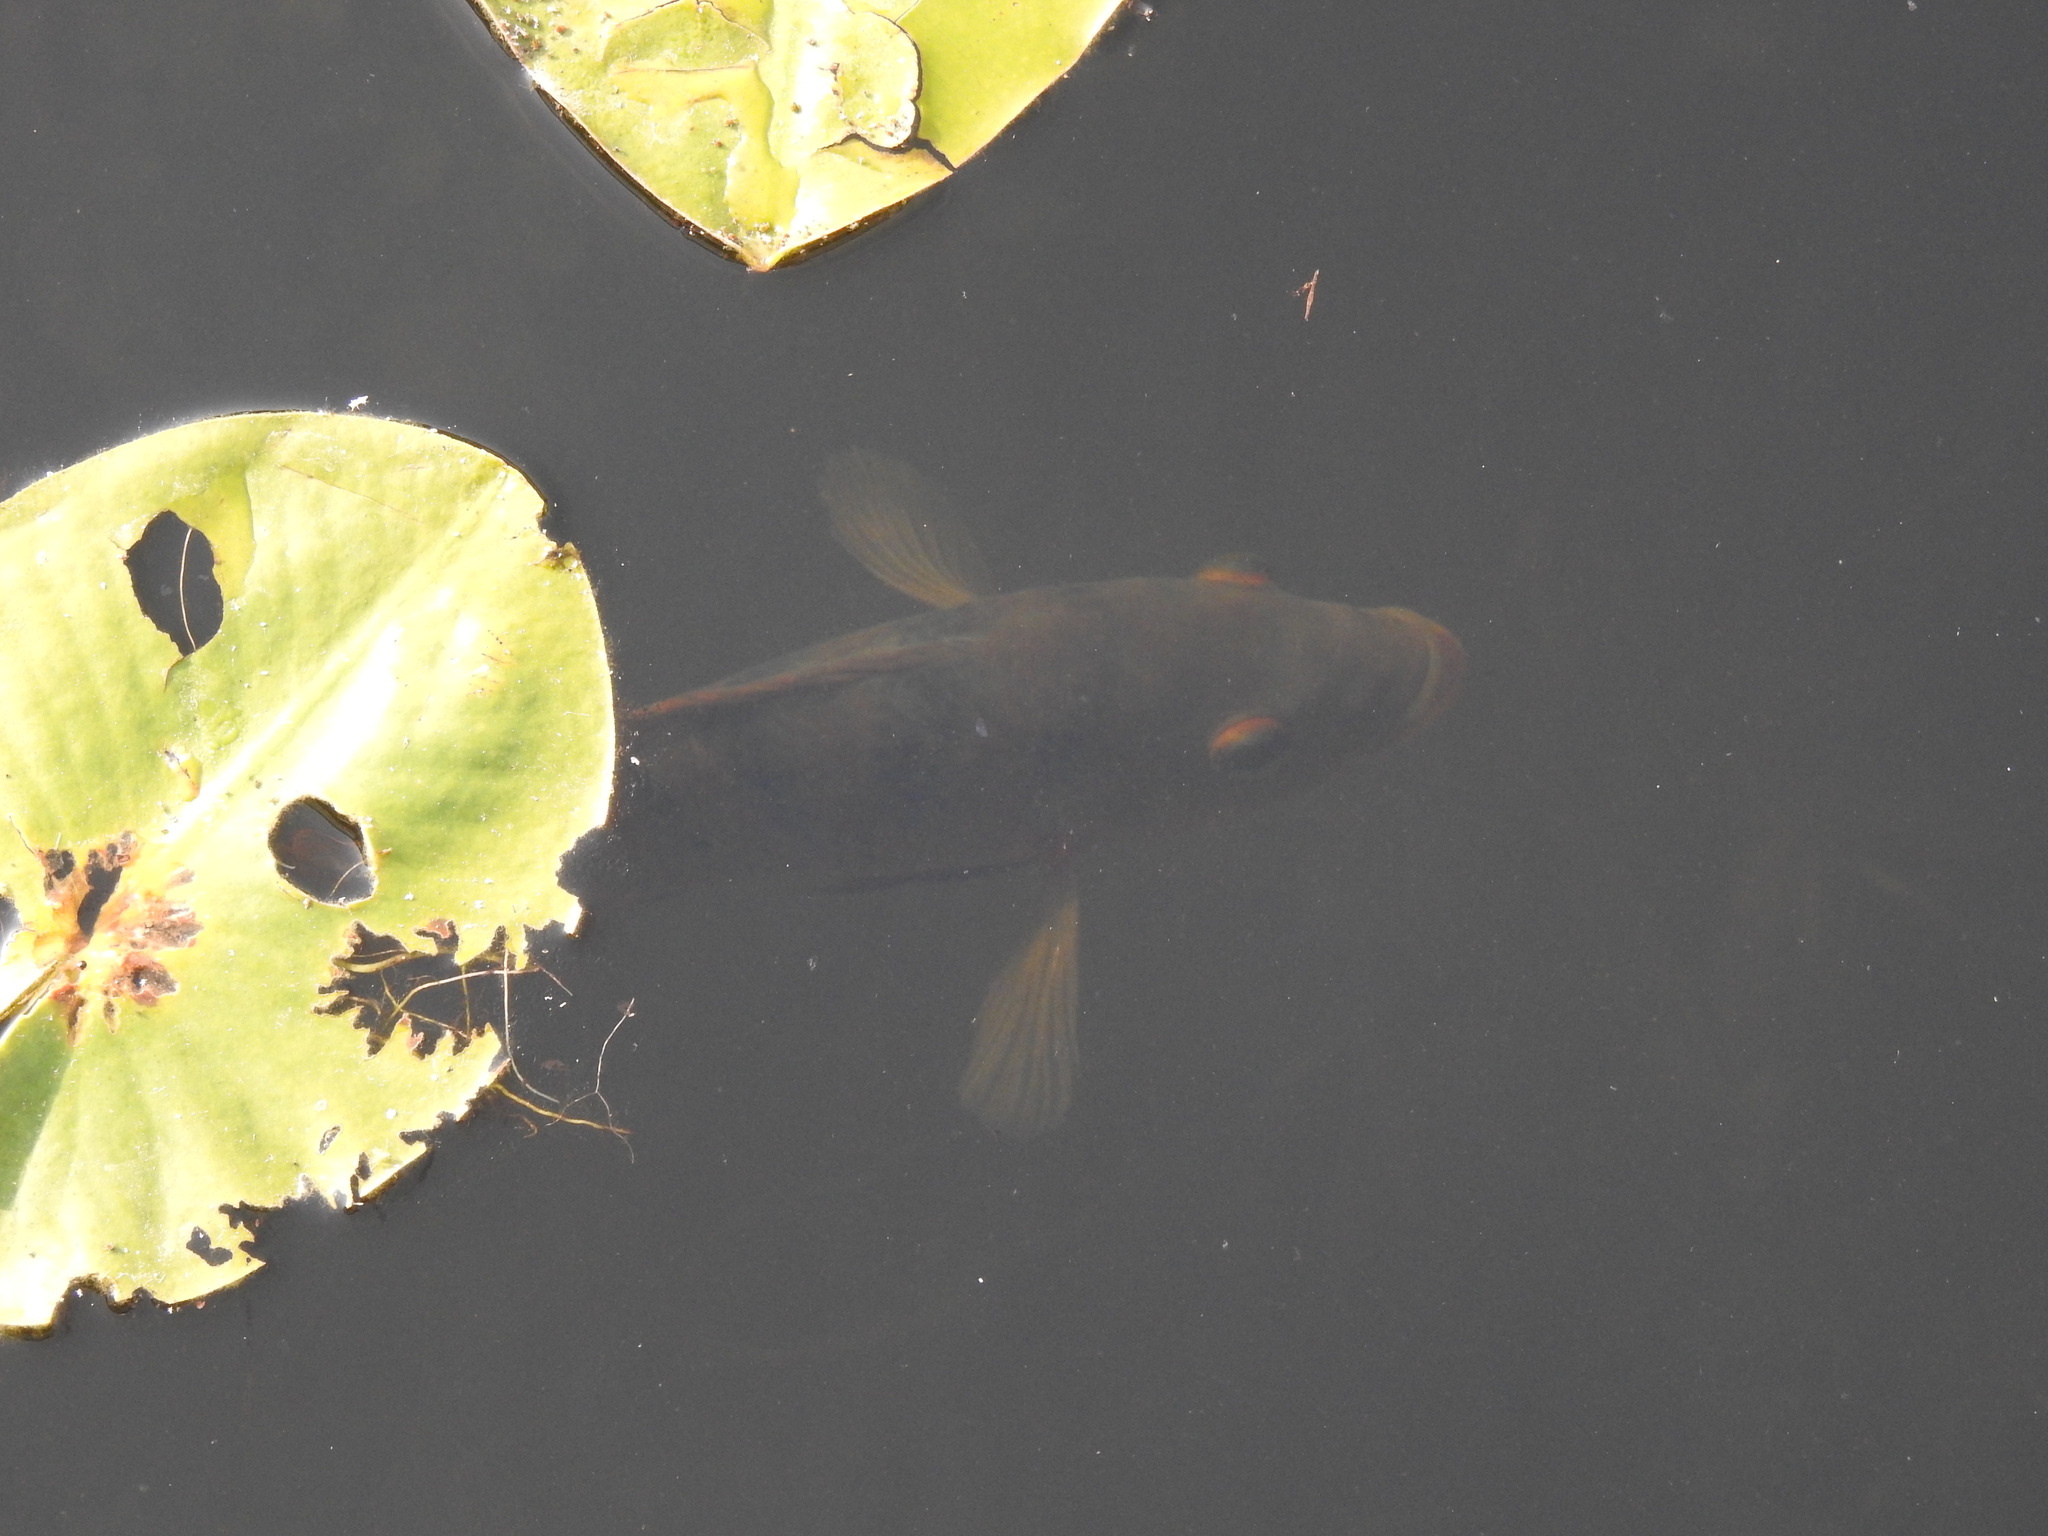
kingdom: Animalia
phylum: Chordata
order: Perciformes
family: Cichlidae
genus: Mayaheros
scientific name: Mayaheros urophthalmus
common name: Mayan cichlid
